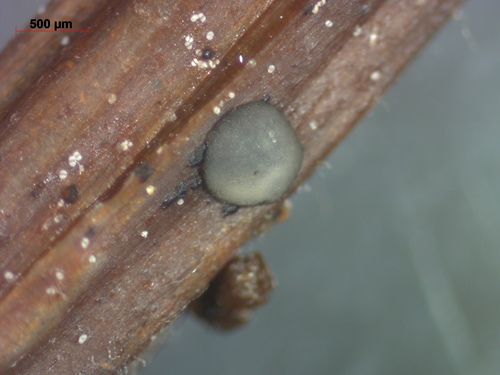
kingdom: Fungi
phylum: Ascomycota
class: Leotiomycetes
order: Helotiales
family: Mollisiaceae
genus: Mollisia
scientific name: Mollisia
